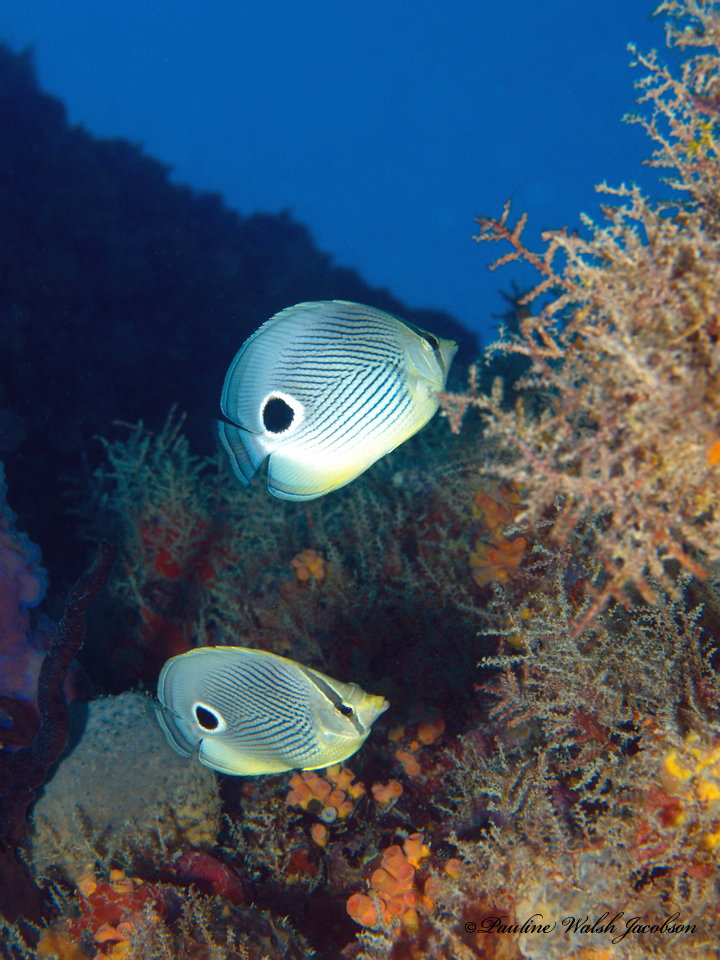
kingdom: Animalia
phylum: Chordata
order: Perciformes
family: Chaetodontidae
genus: Chaetodon
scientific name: Chaetodon capistratus
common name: Kete
